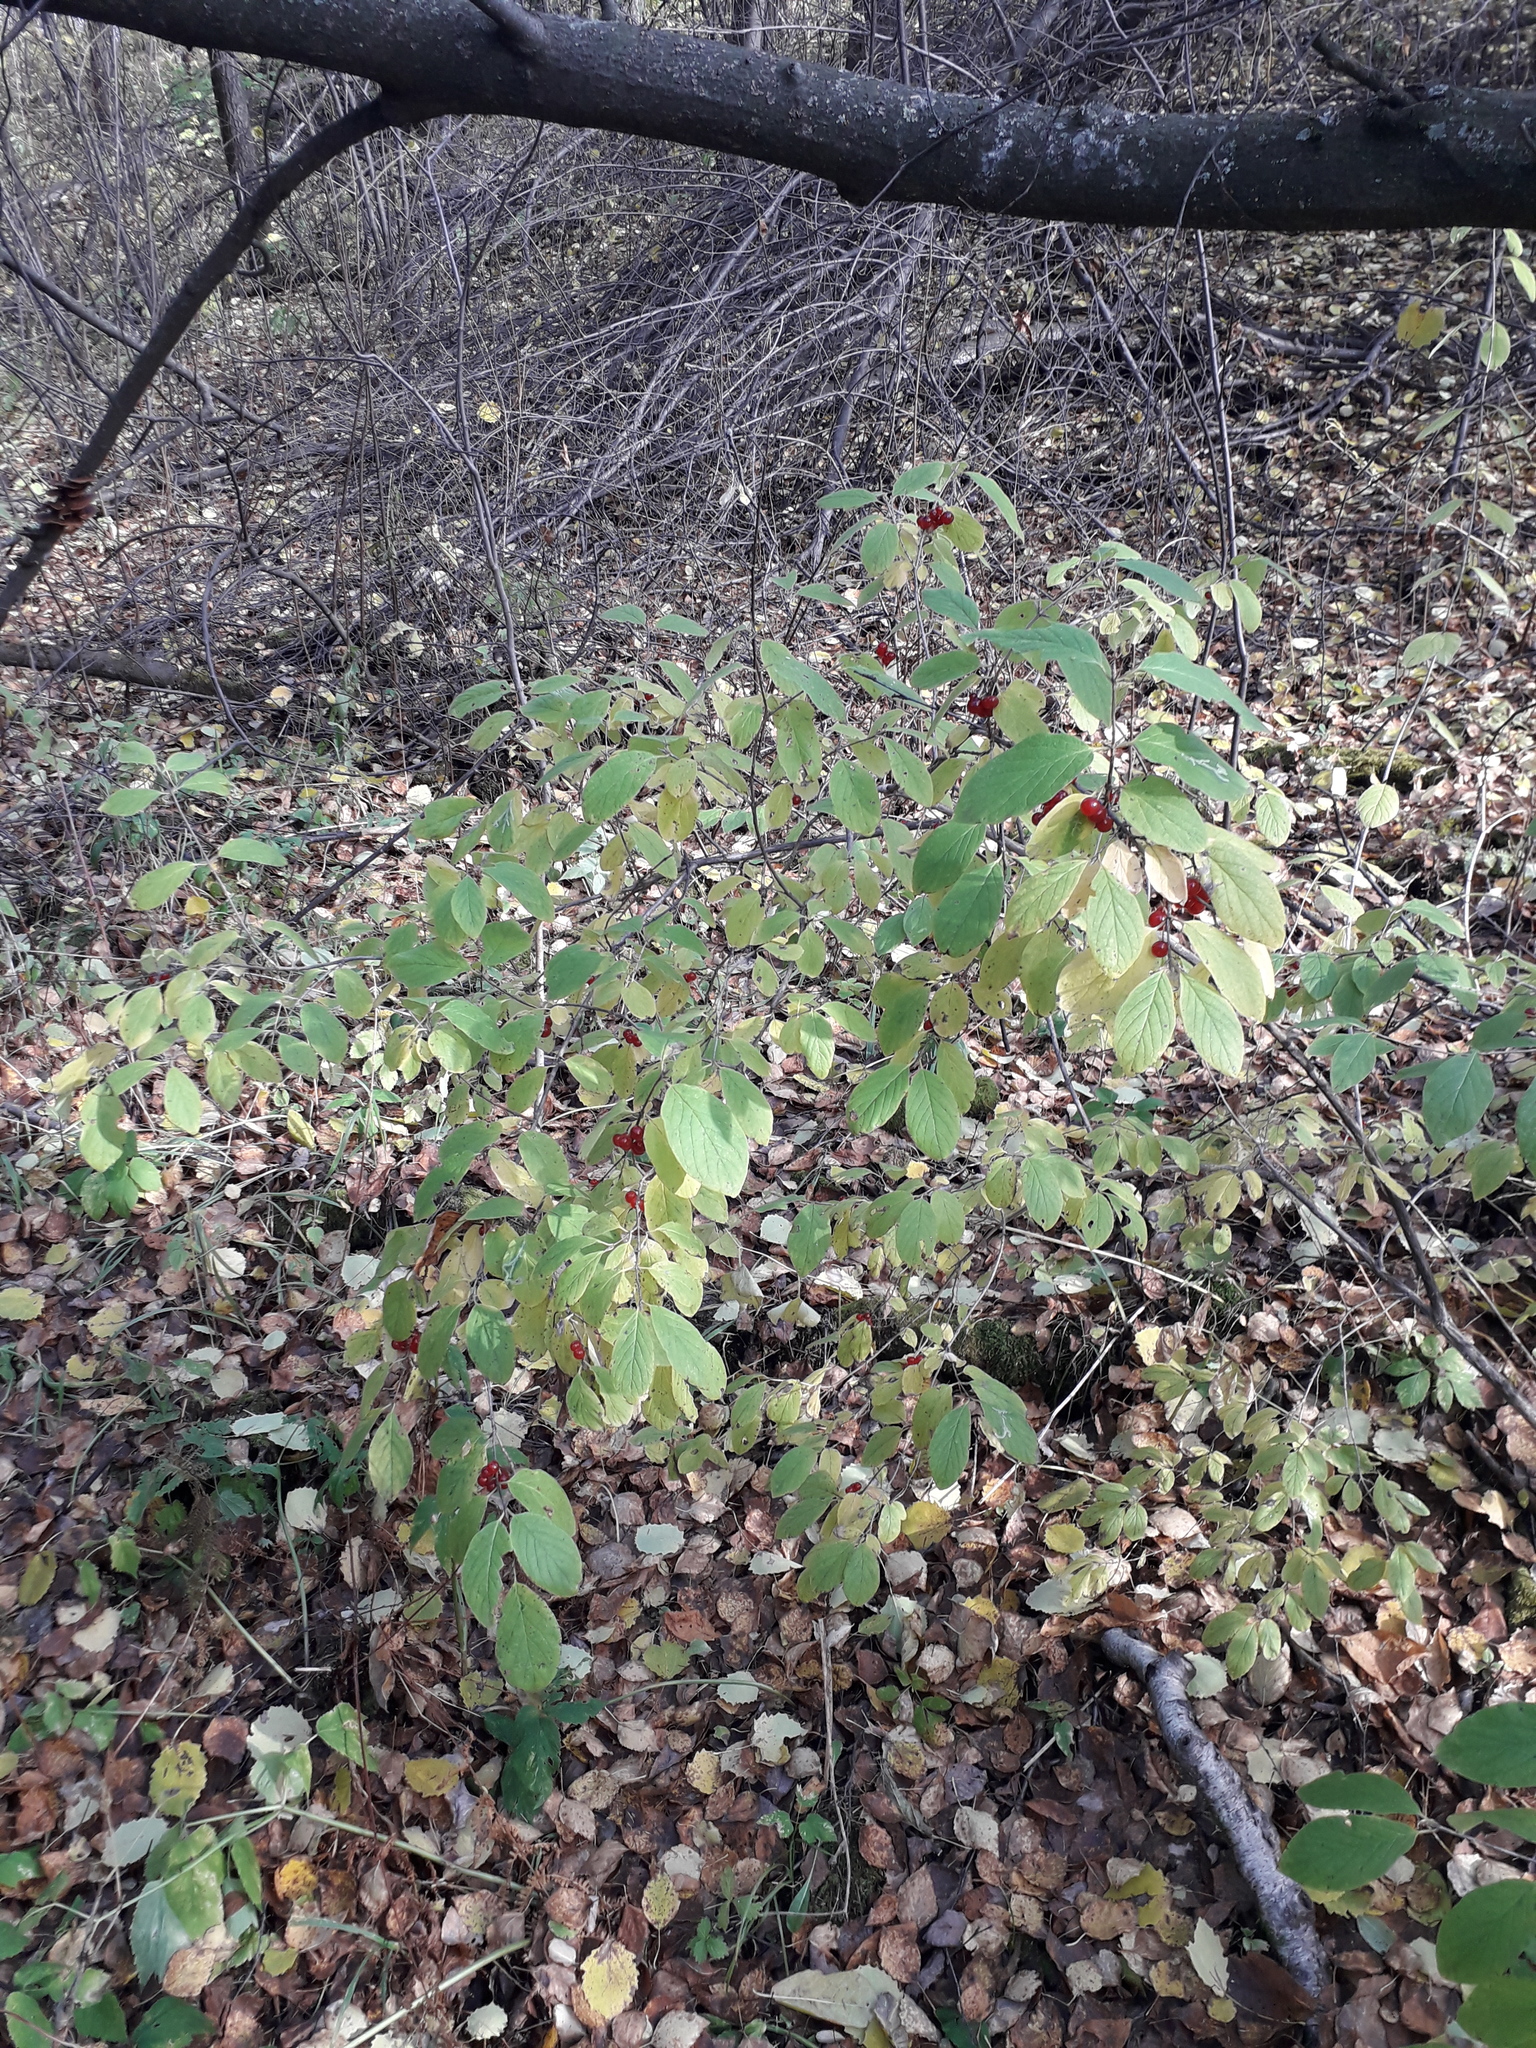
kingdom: Plantae
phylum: Tracheophyta
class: Magnoliopsida
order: Dipsacales
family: Caprifoliaceae
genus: Lonicera
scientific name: Lonicera xylosteum
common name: Fly honeysuckle
